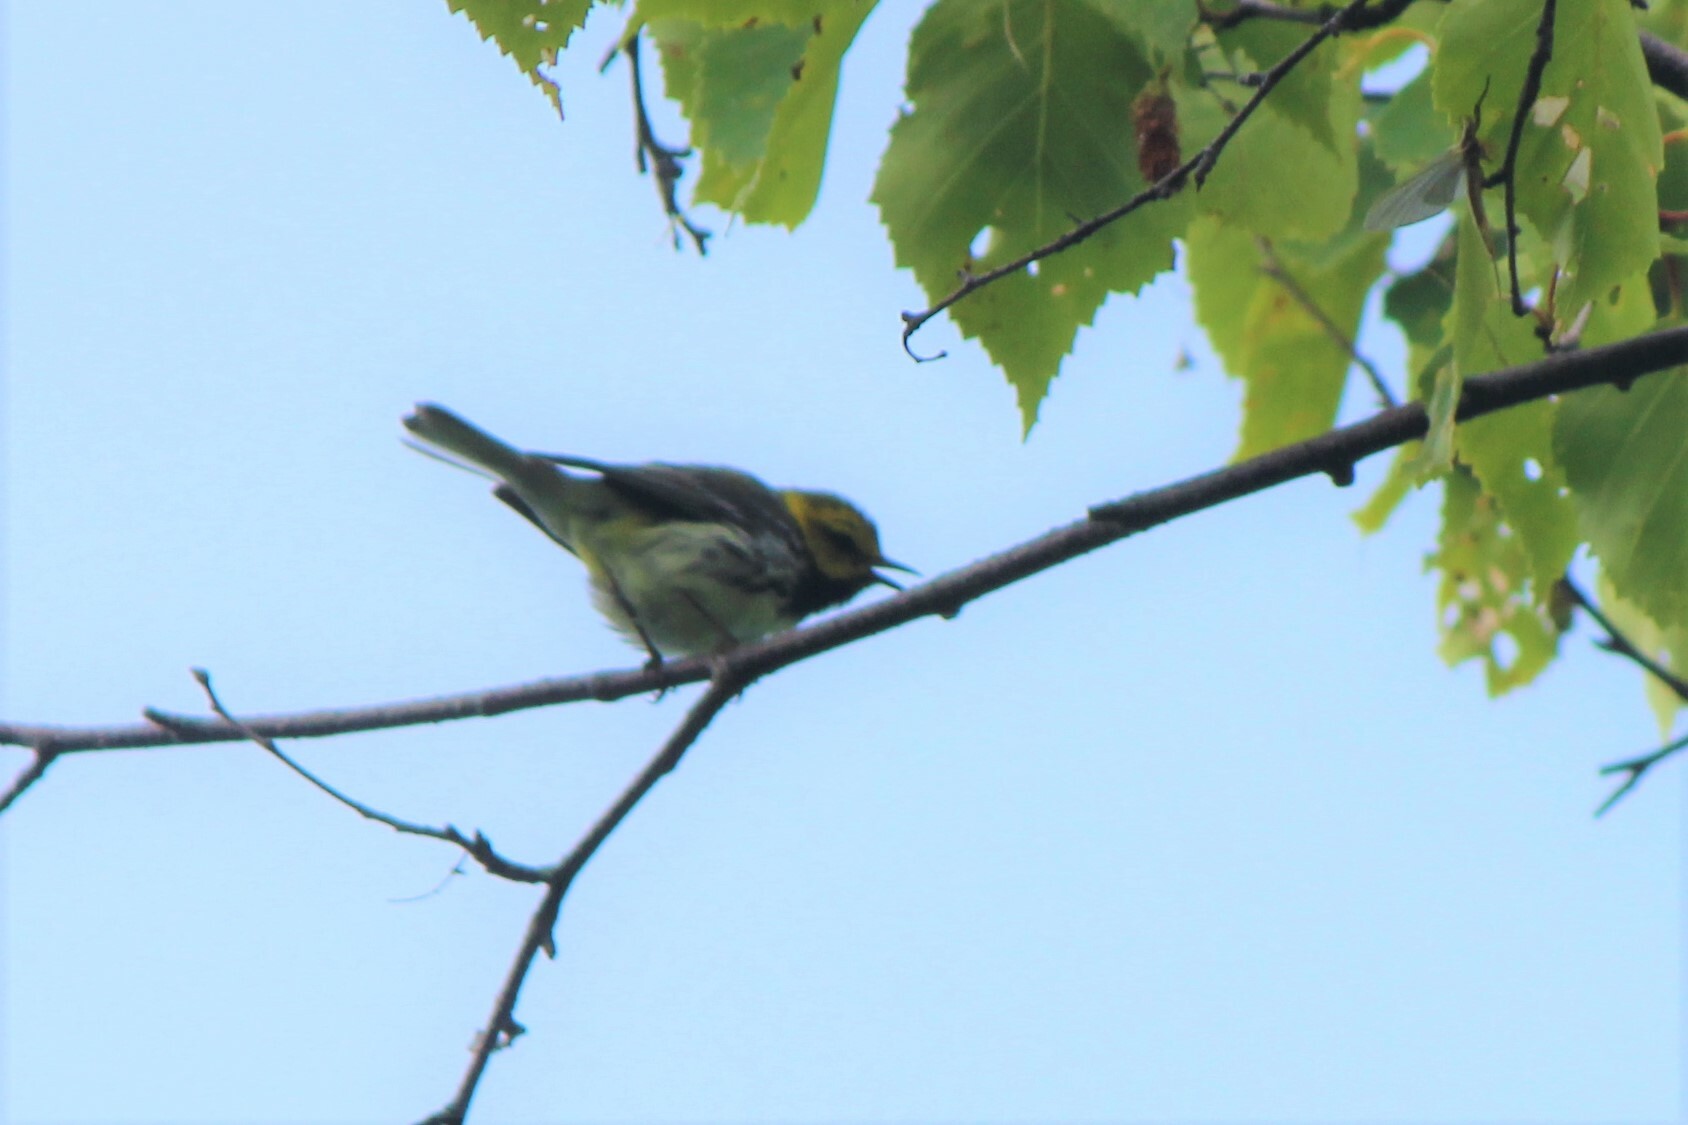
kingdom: Animalia
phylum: Chordata
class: Aves
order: Passeriformes
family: Parulidae
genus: Setophaga
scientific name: Setophaga virens
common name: Black-throated green warbler
